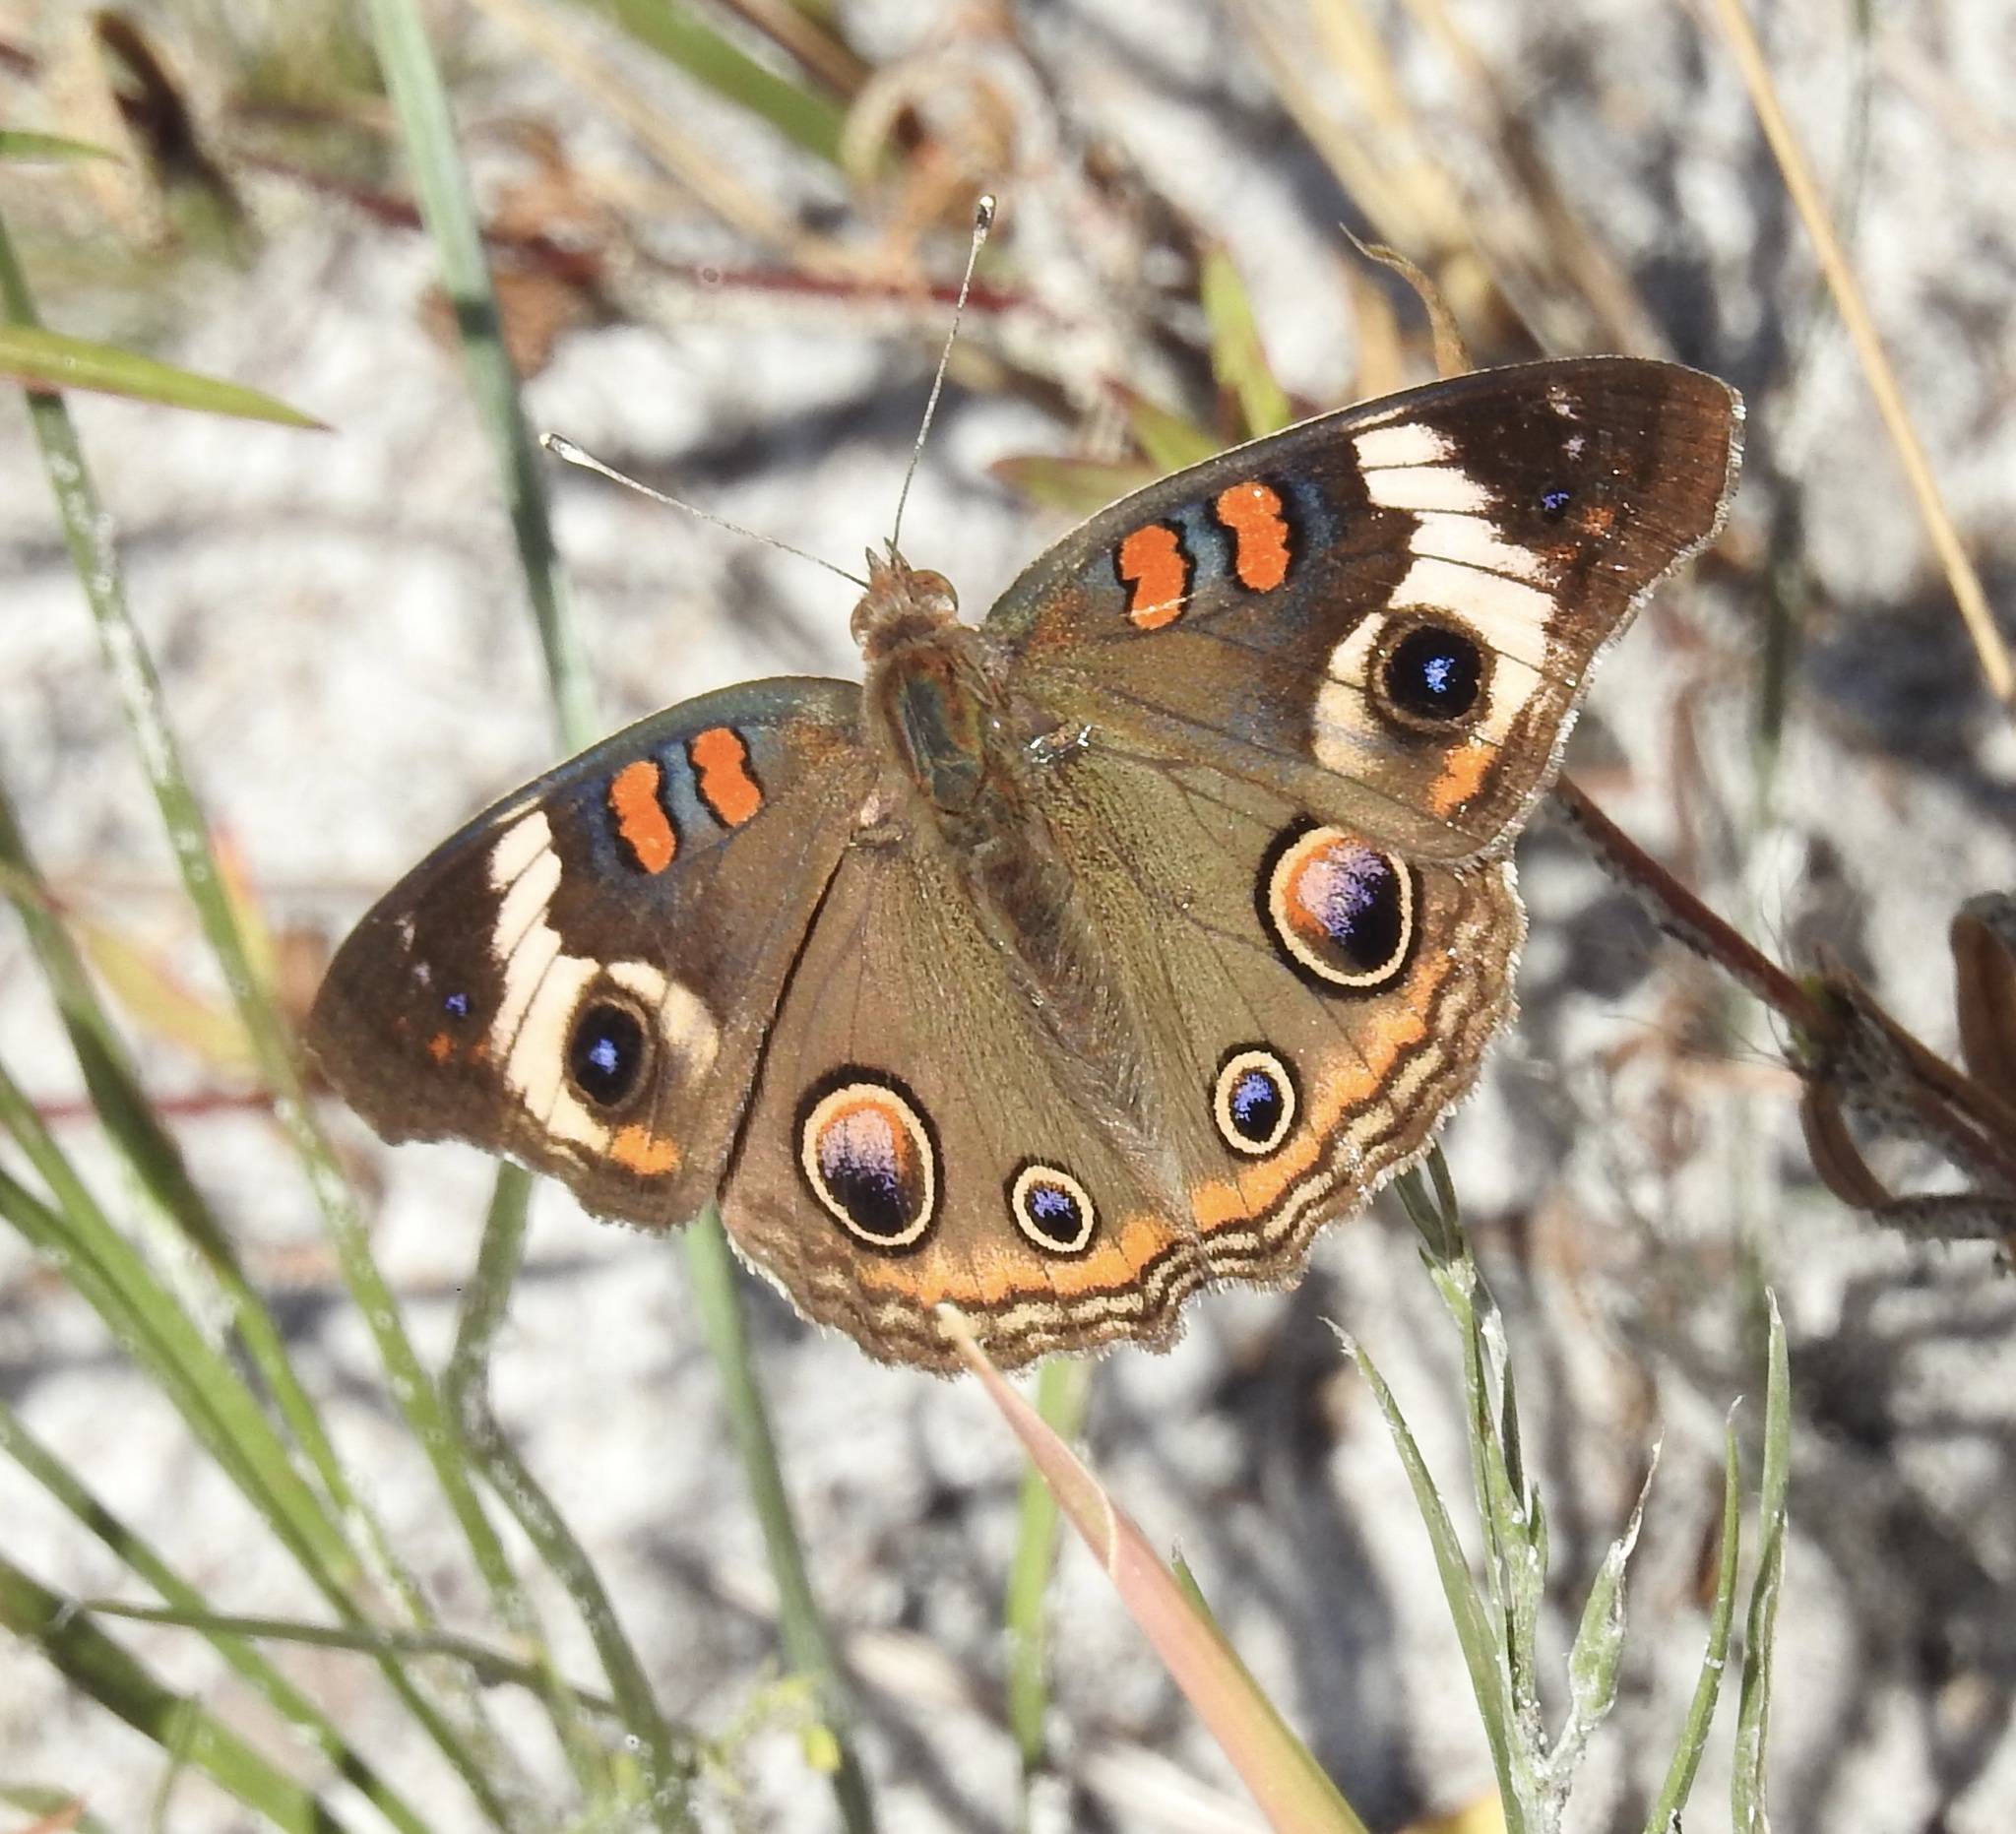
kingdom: Animalia
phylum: Arthropoda
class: Insecta
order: Lepidoptera
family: Nymphalidae
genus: Junonia
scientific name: Junonia coenia
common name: Common buckeye
